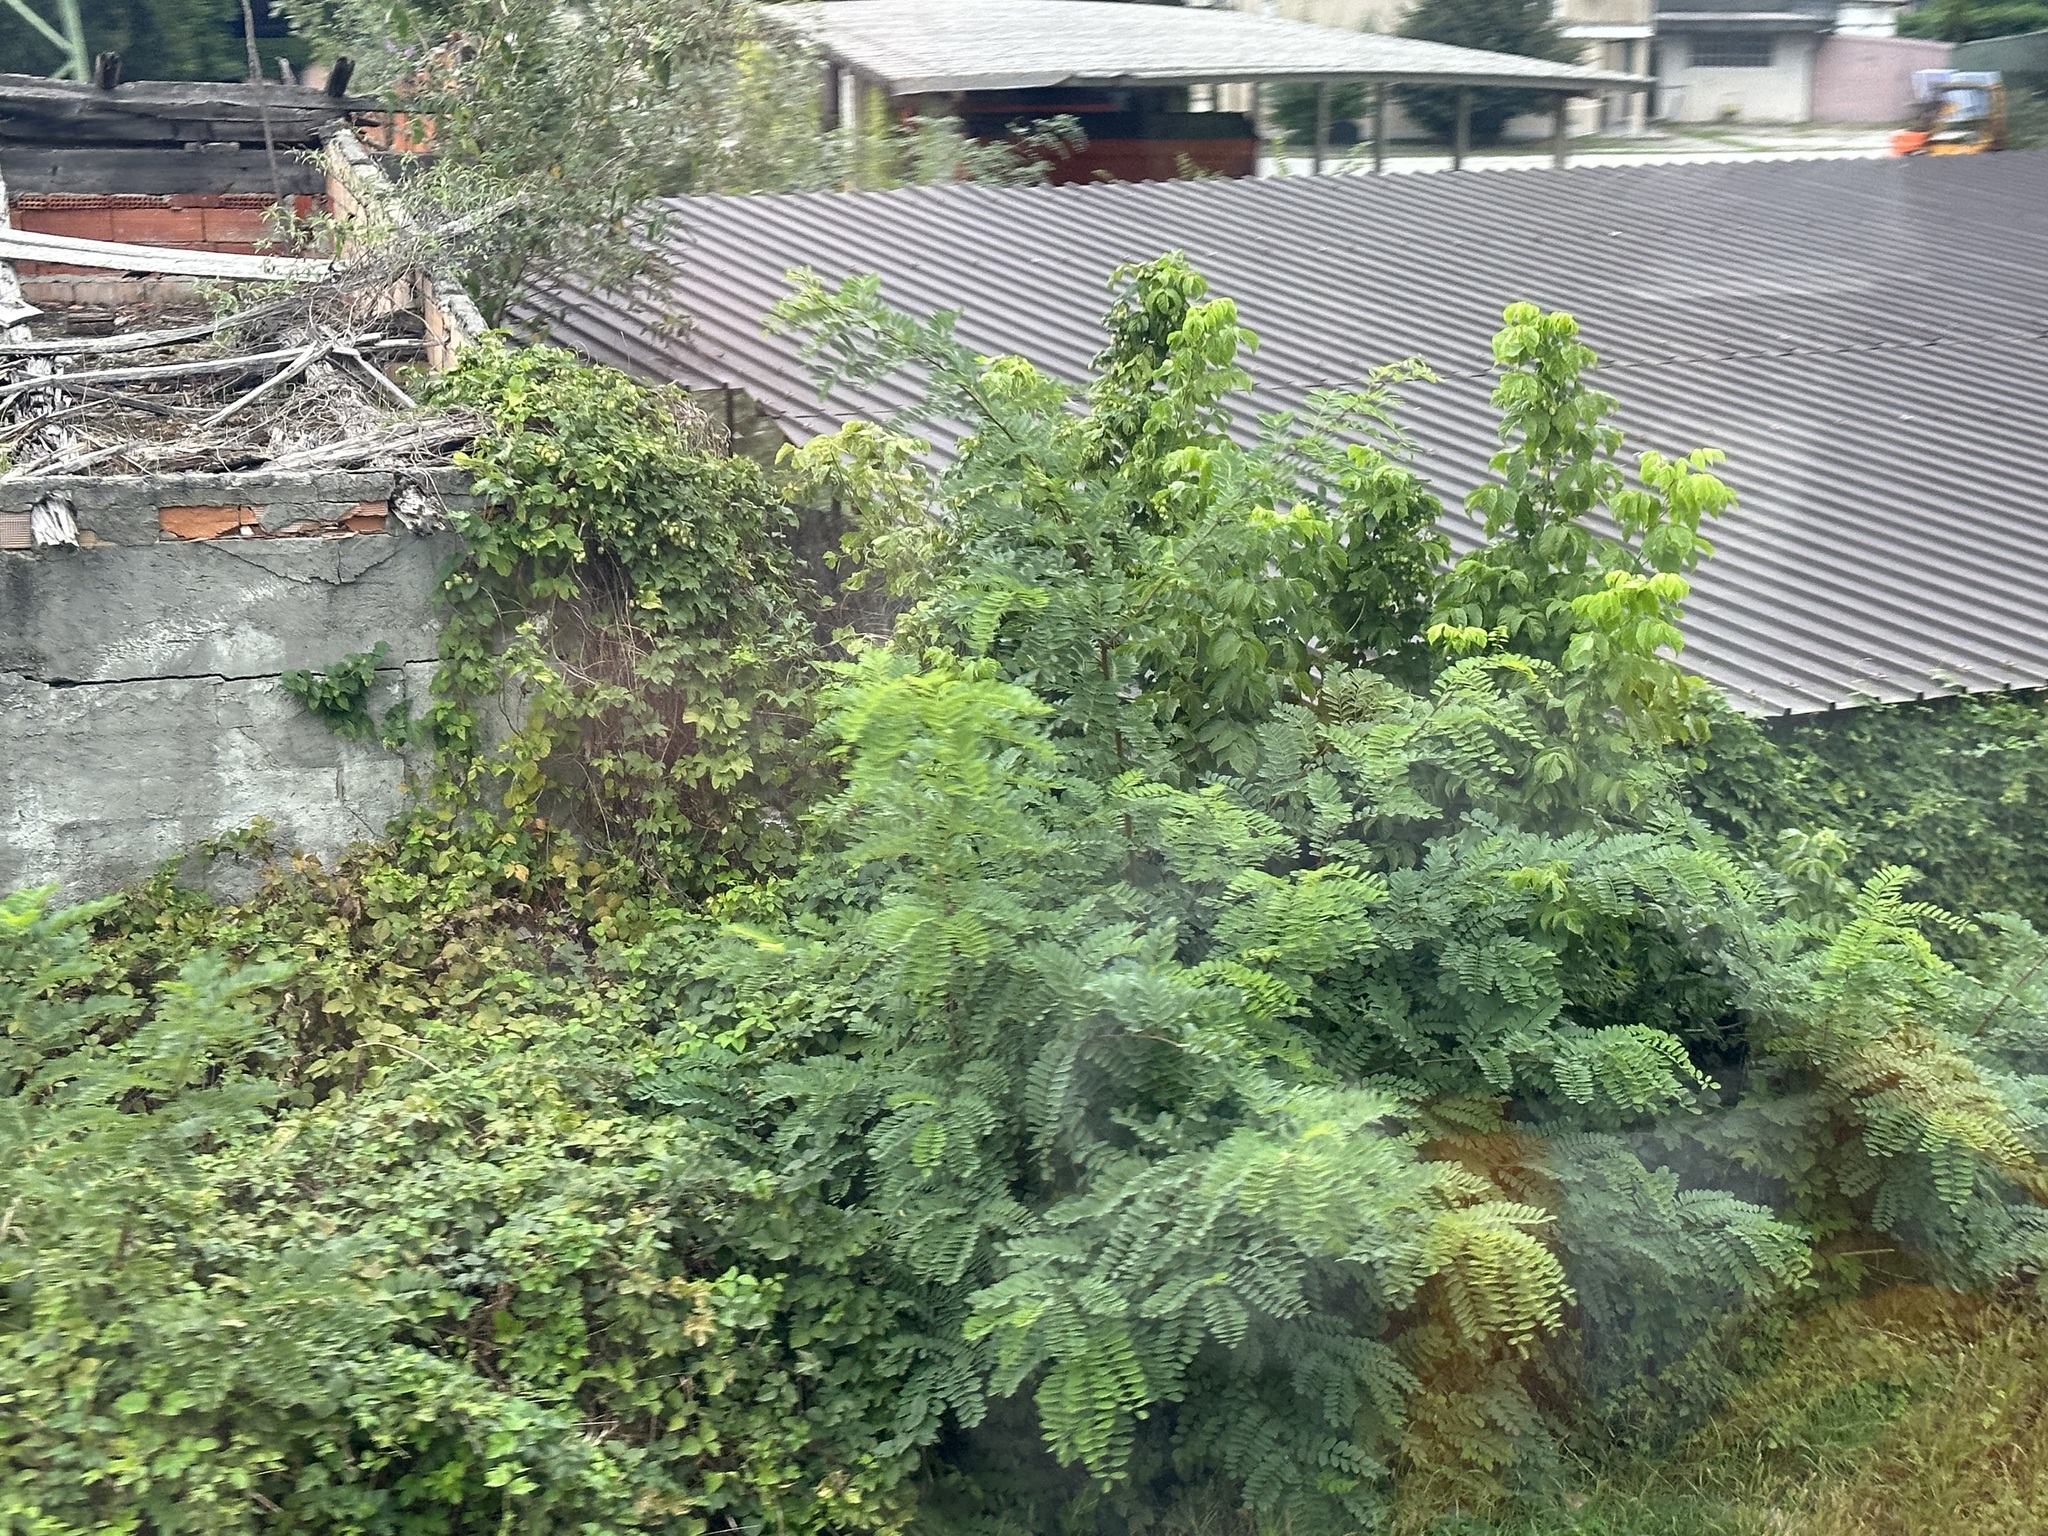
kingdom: Plantae
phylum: Tracheophyta
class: Magnoliopsida
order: Fabales
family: Fabaceae
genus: Robinia
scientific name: Robinia pseudoacacia
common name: Black locust
